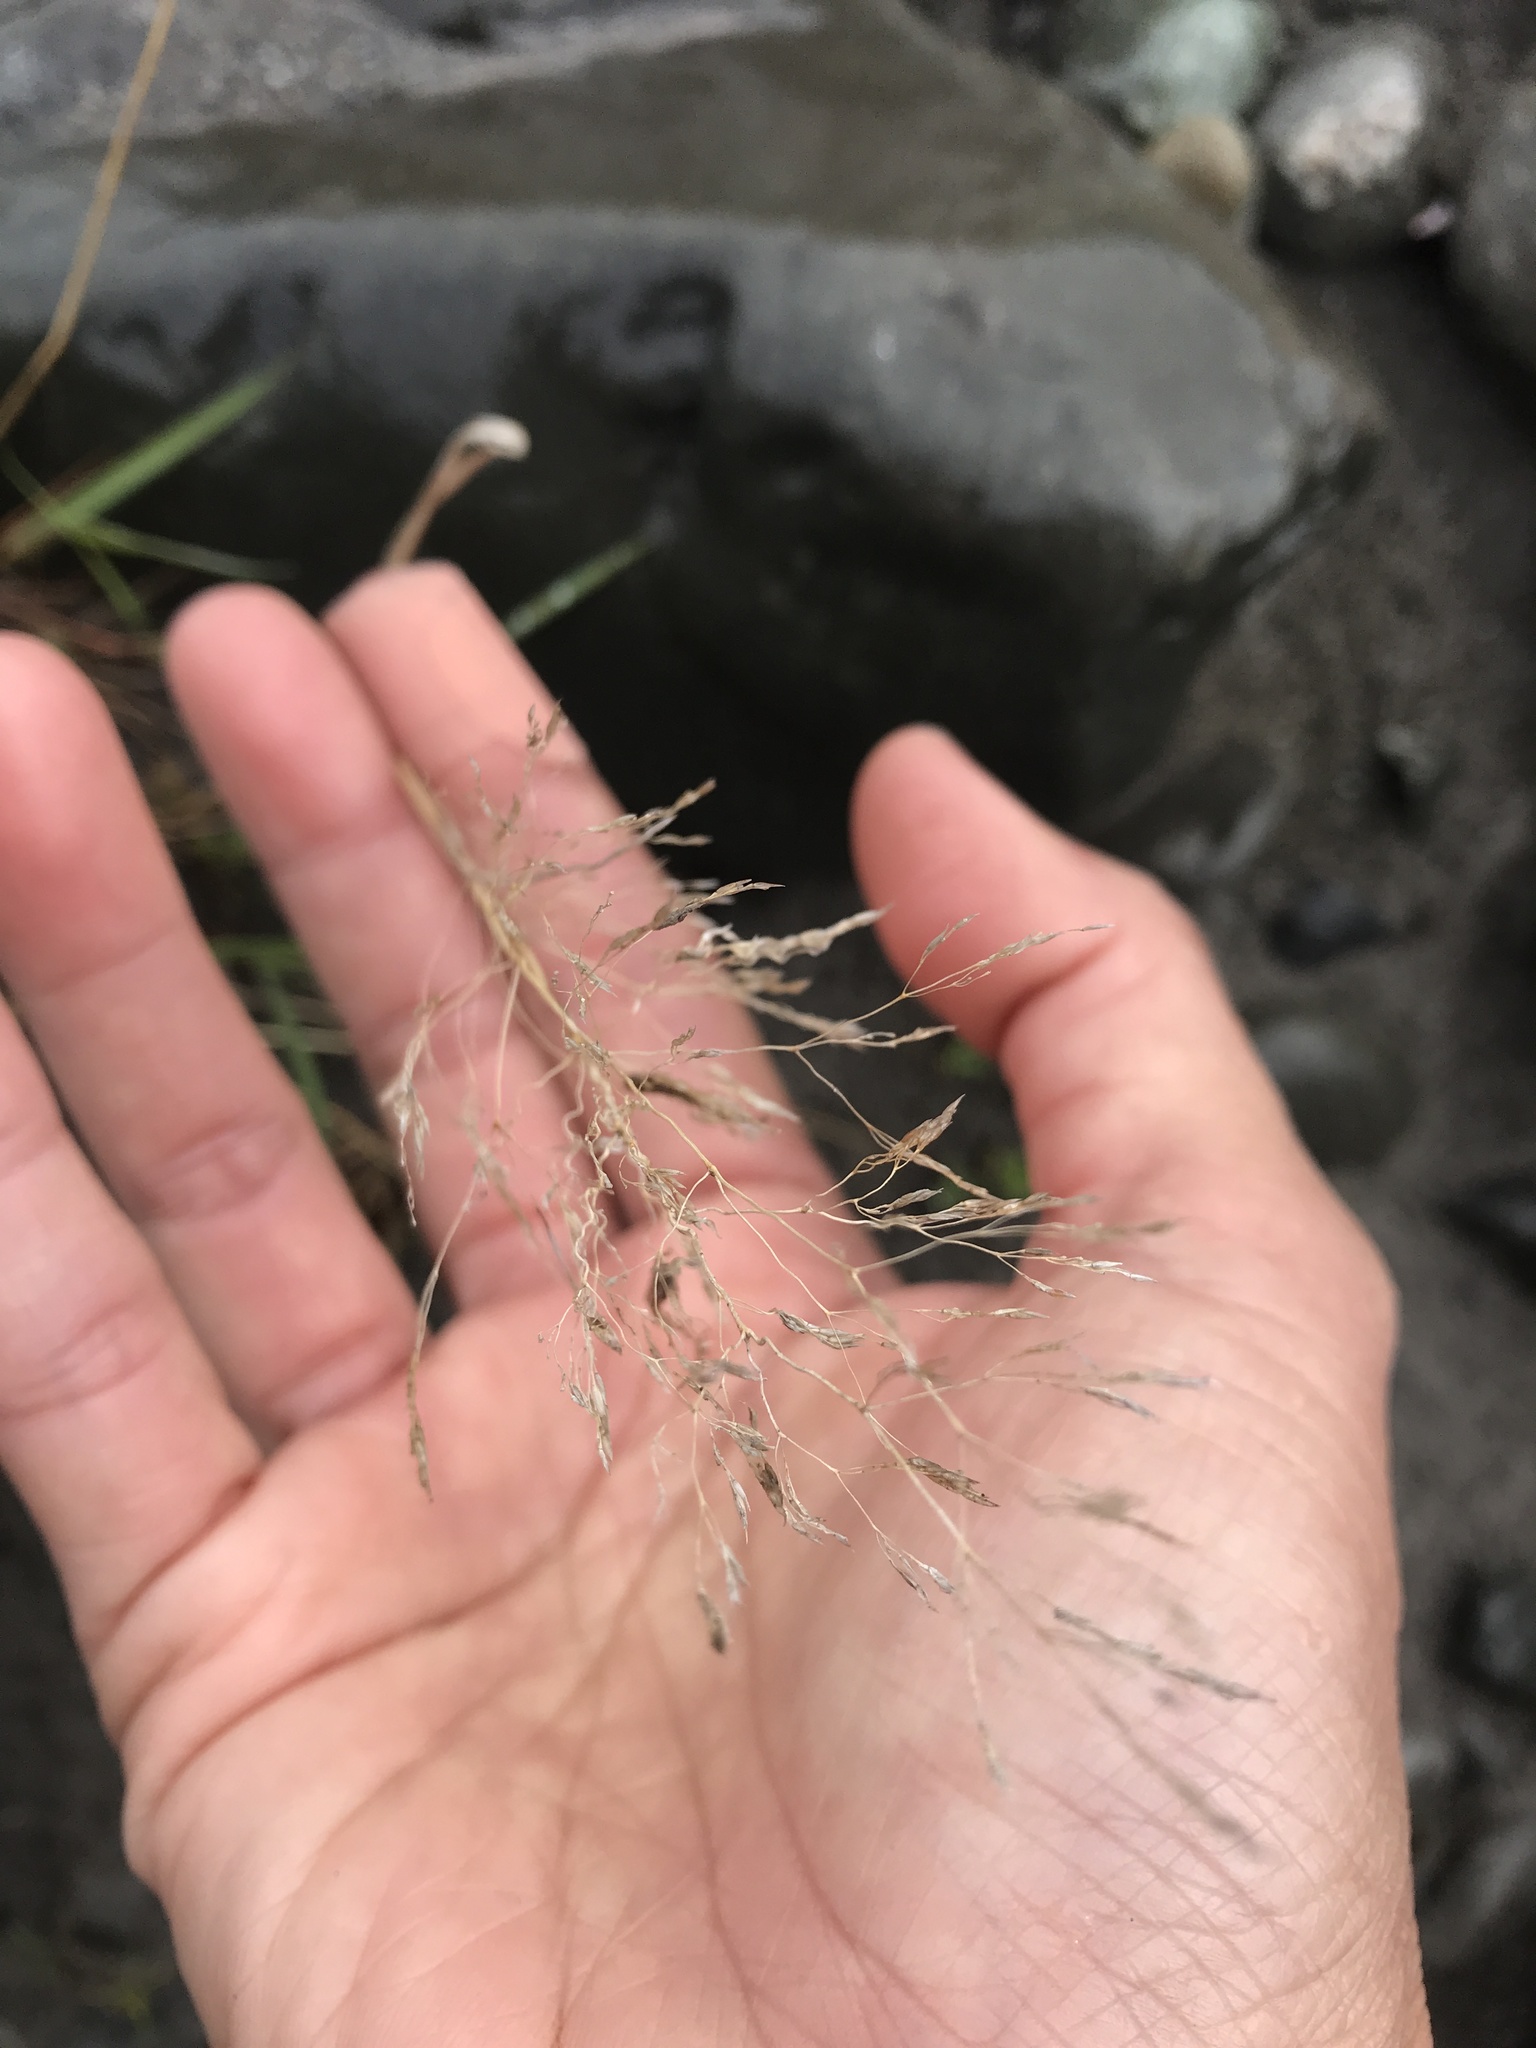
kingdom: Plantae
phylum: Tracheophyta
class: Liliopsida
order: Poales
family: Poaceae
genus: Agrostis
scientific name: Agrostis capillaris
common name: Colonial bentgrass
